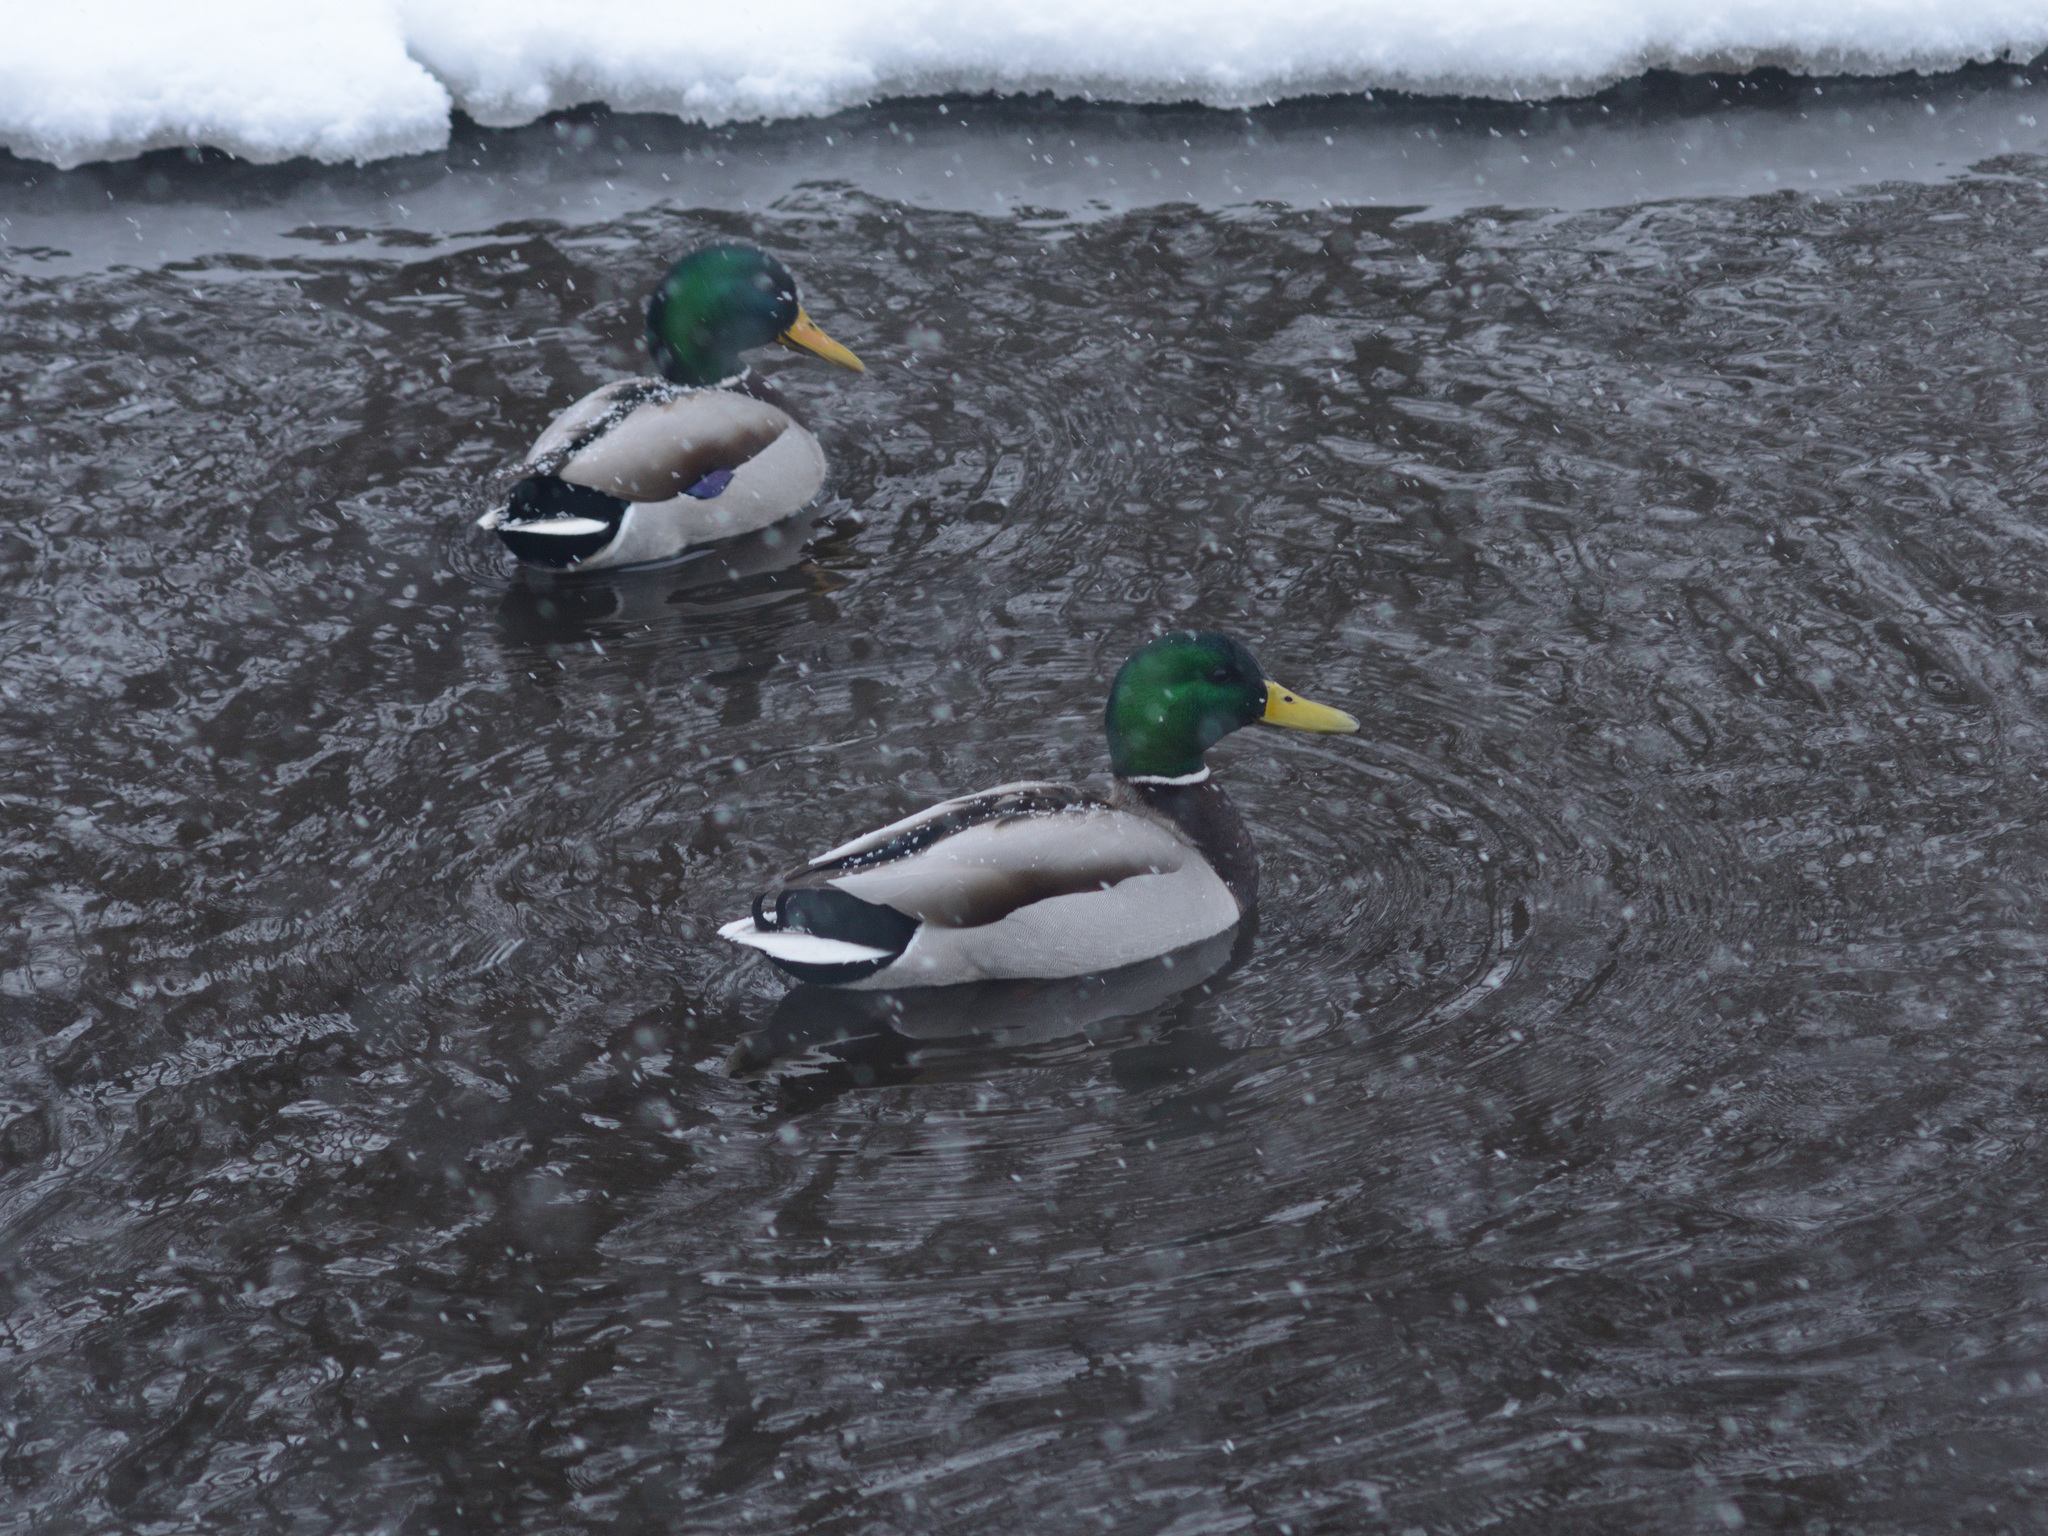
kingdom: Animalia
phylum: Chordata
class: Aves
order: Anseriformes
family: Anatidae
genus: Anas
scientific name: Anas platyrhynchos
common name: Mallard
